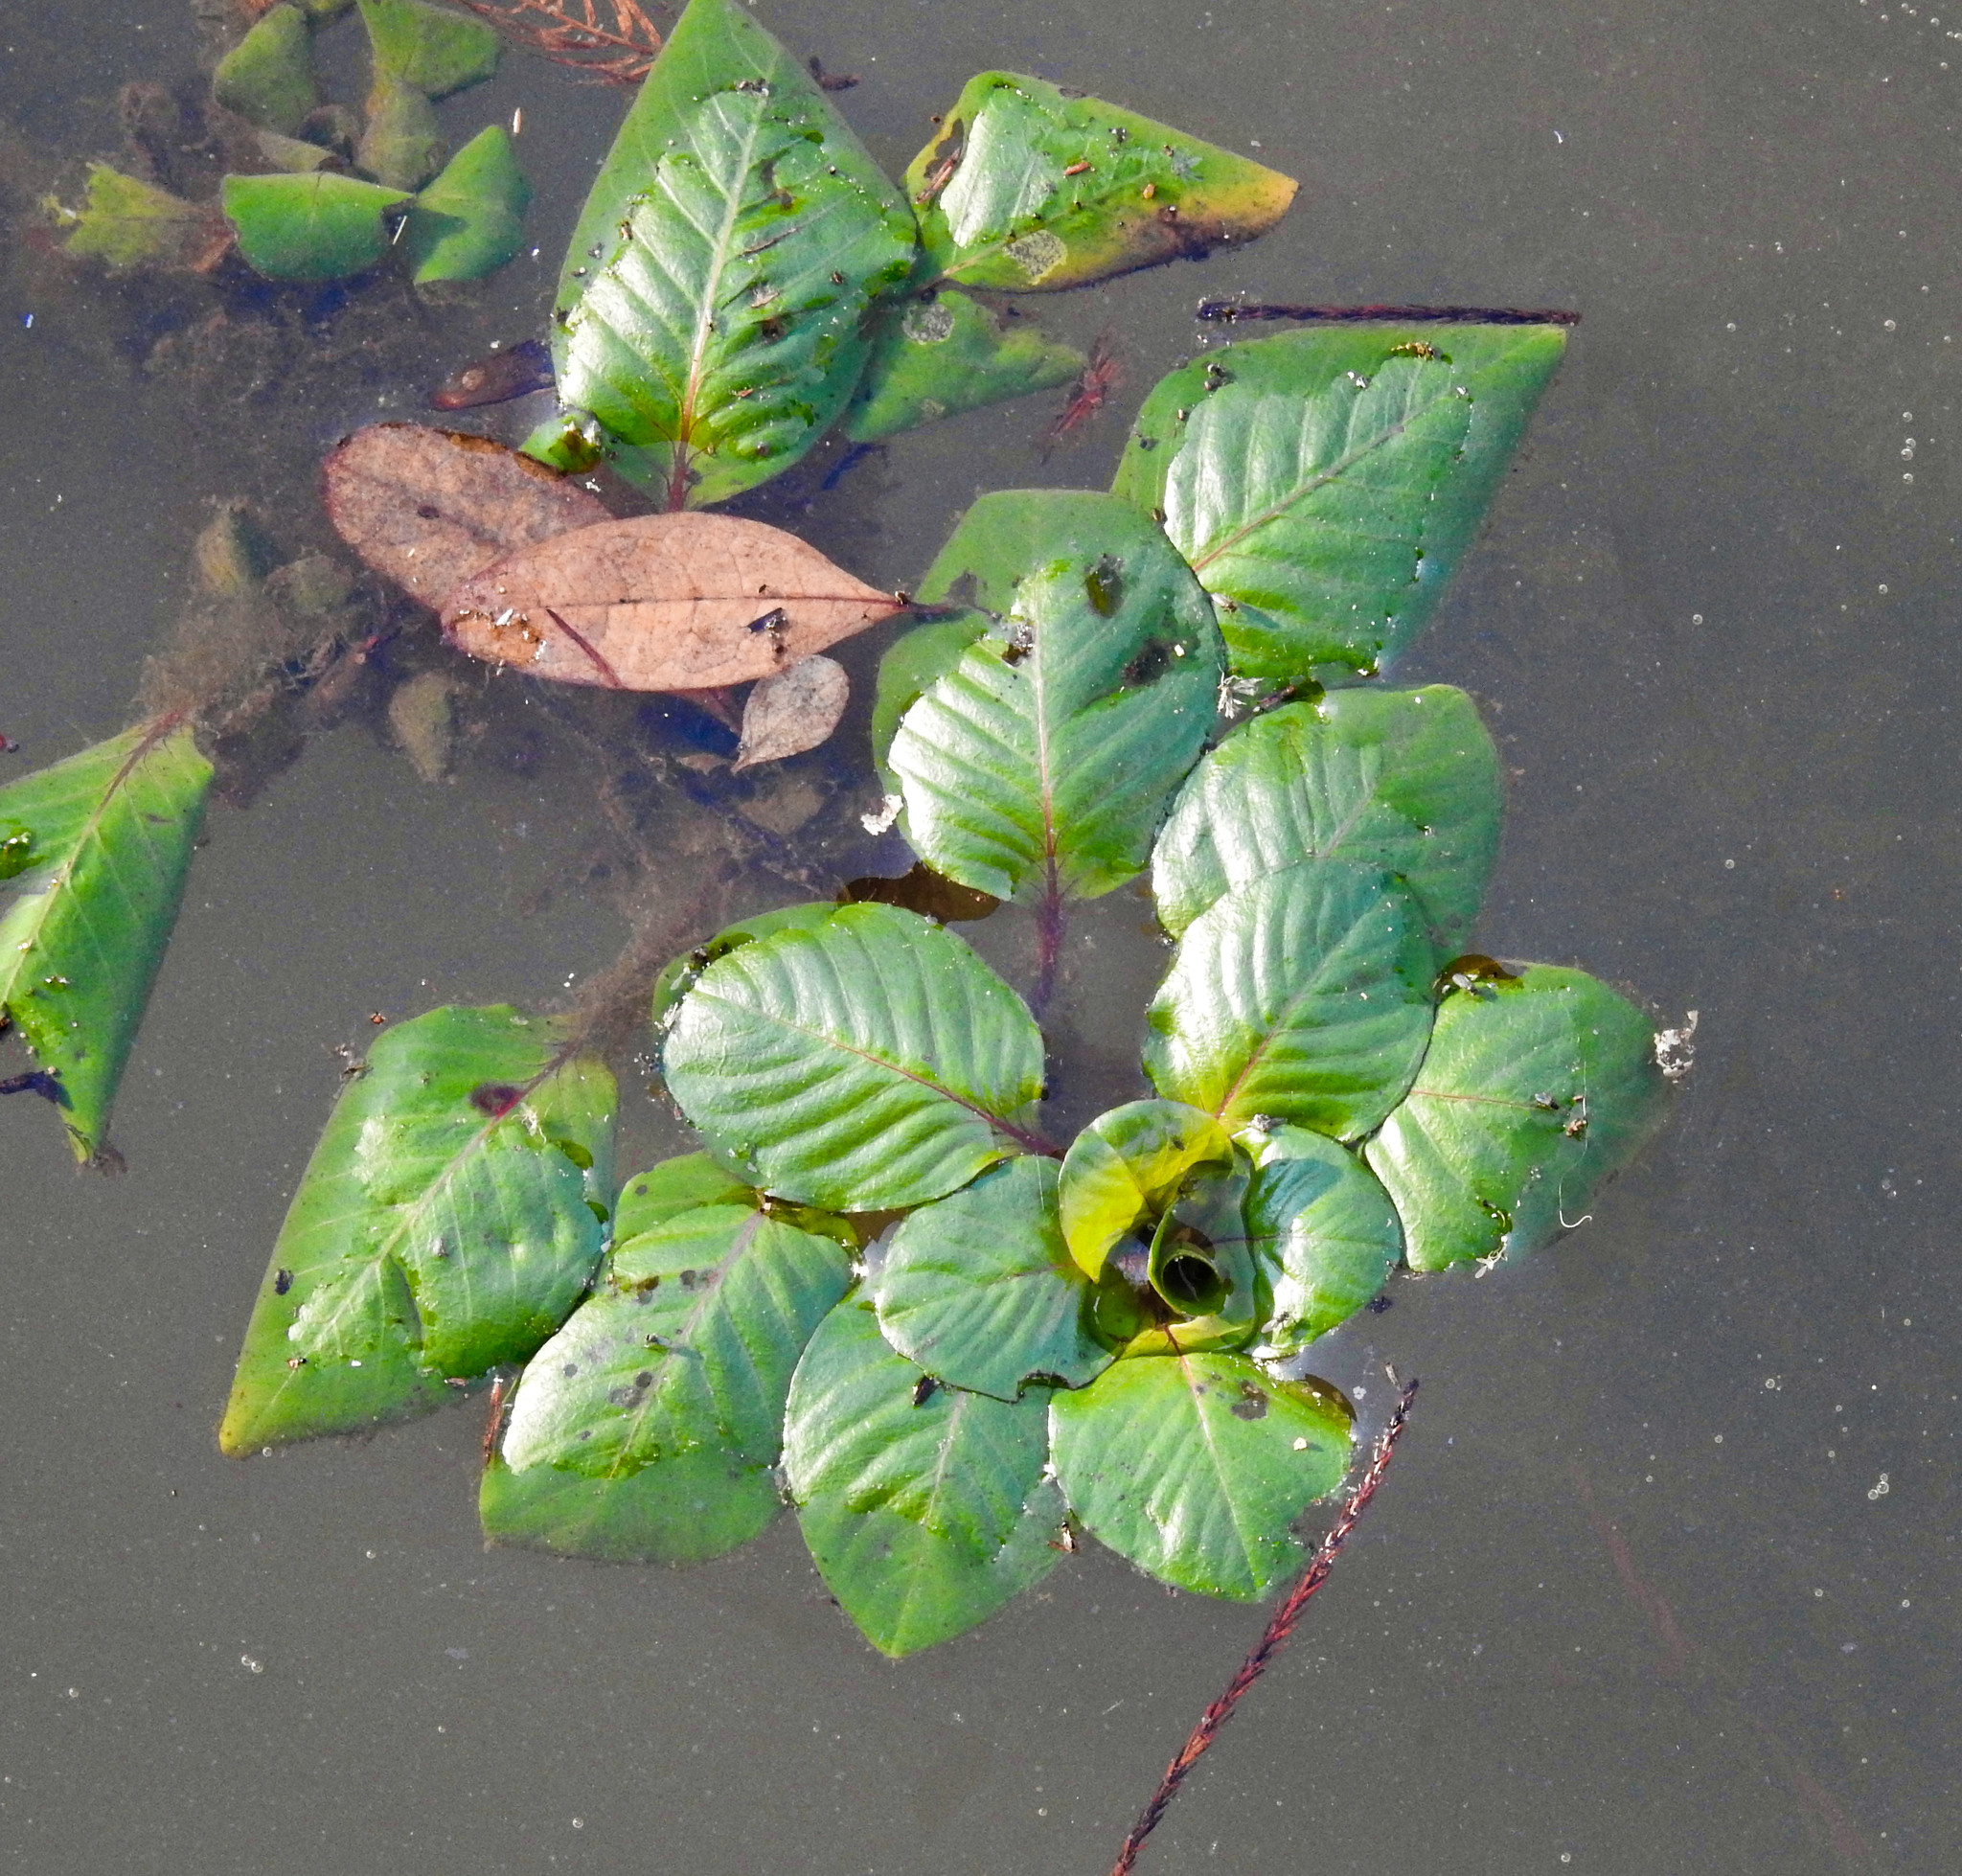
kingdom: Plantae
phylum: Tracheophyta
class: Magnoliopsida
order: Myrtales
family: Onagraceae
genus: Ludwigia
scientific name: Ludwigia peploides
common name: Floating primrose-willow
